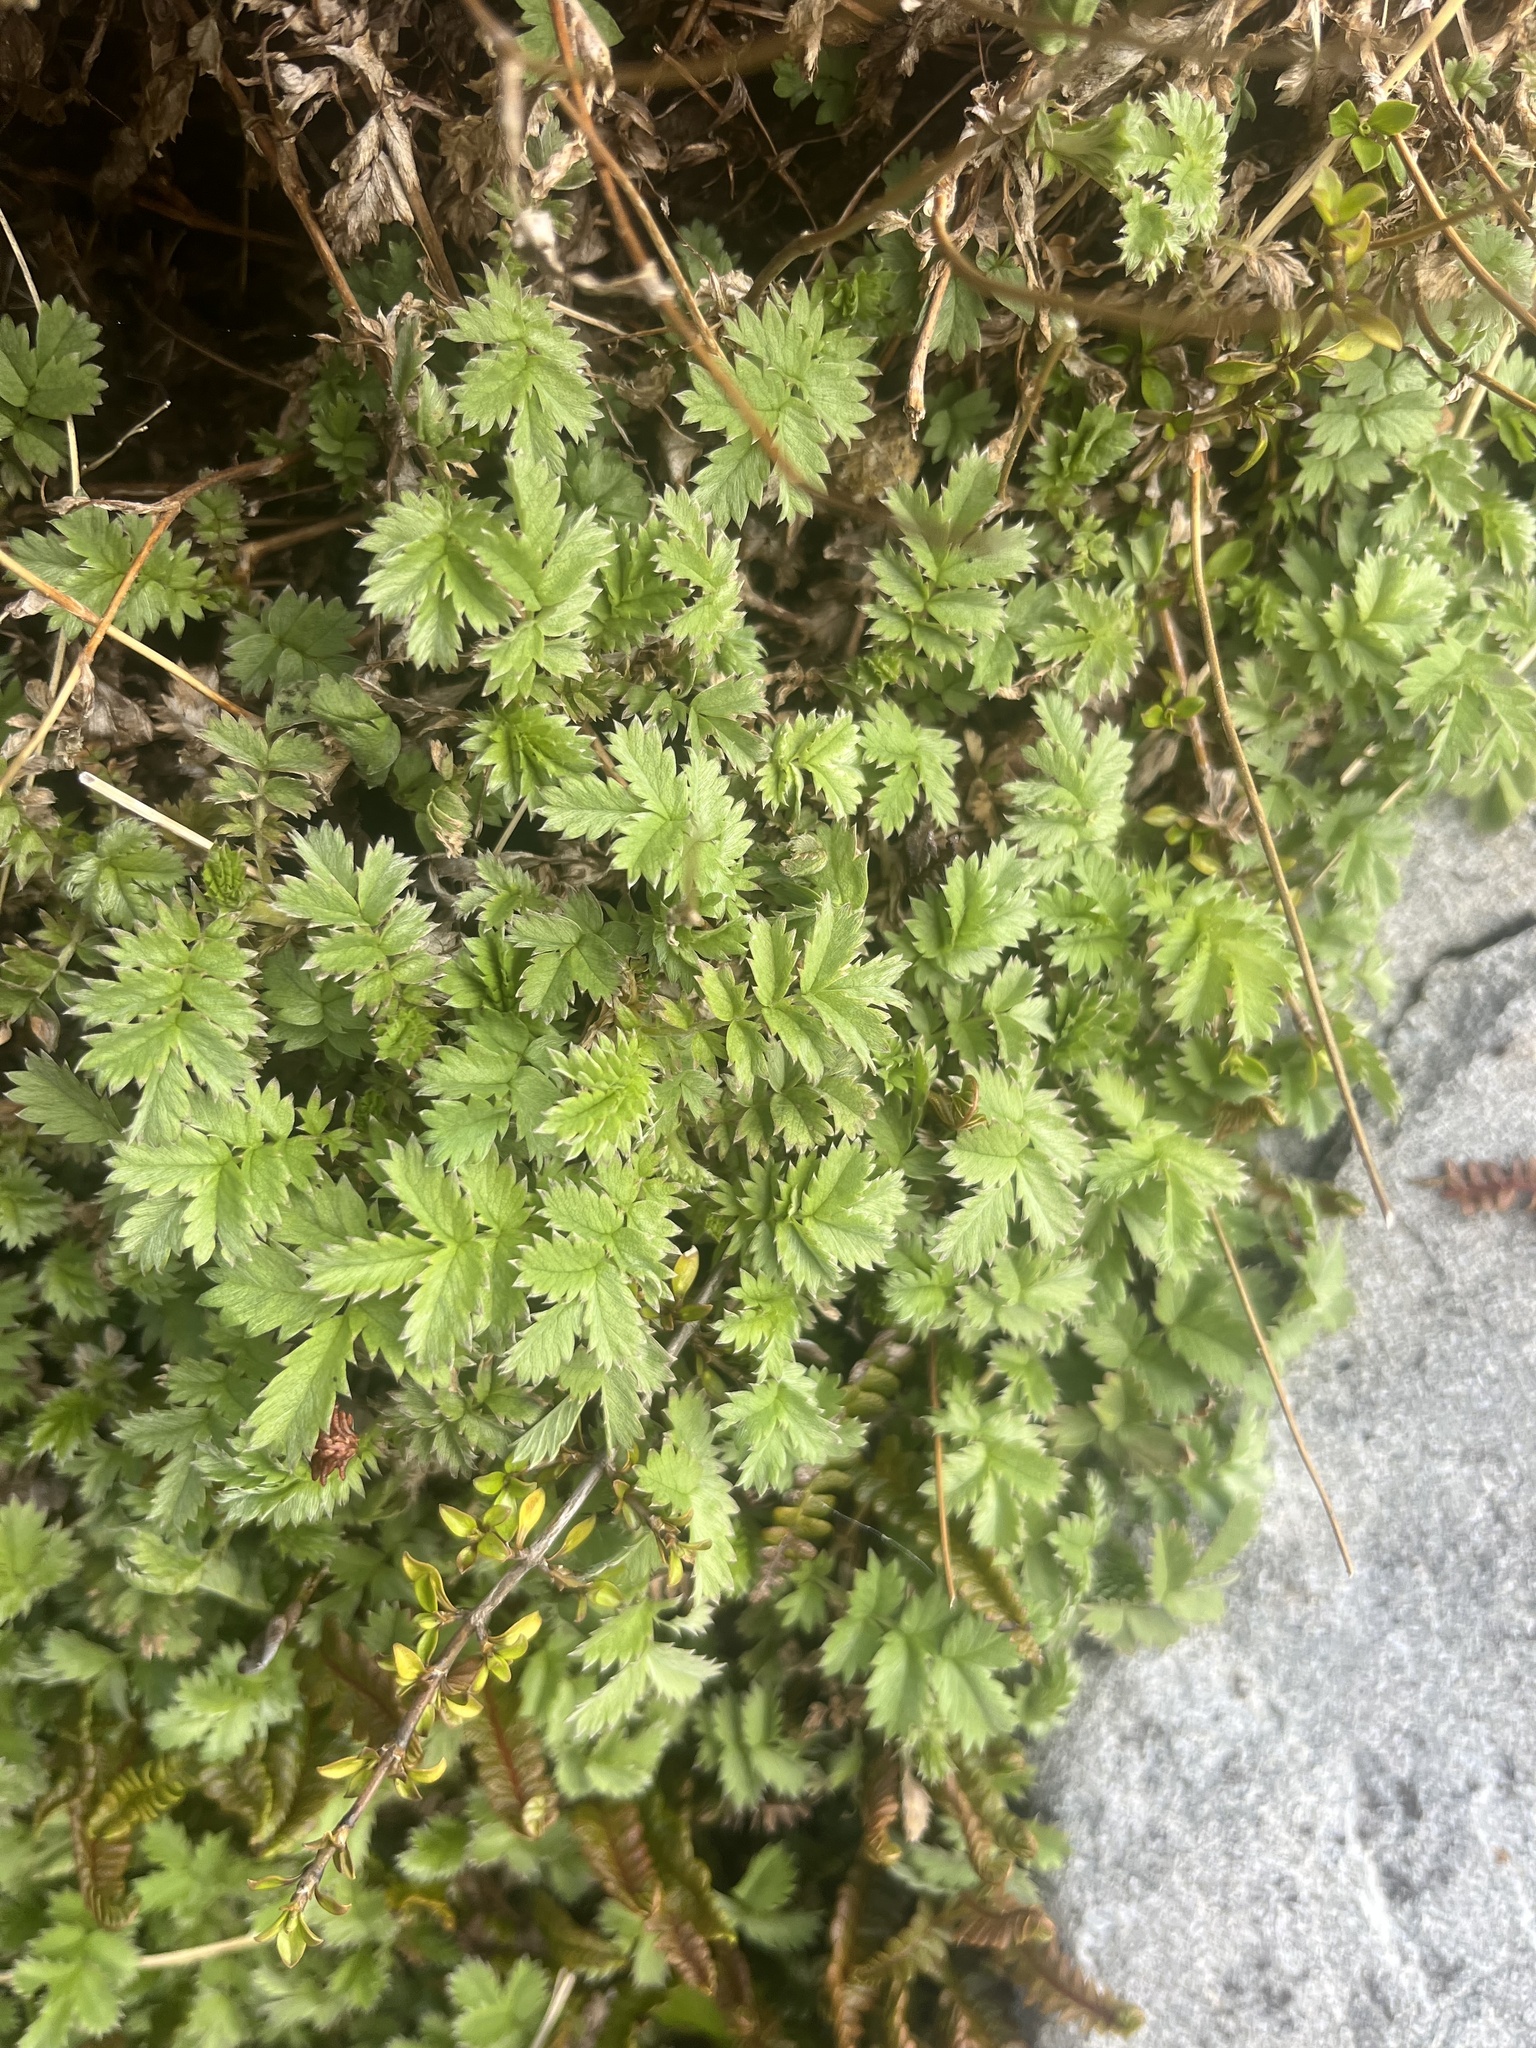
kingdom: Plantae
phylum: Tracheophyta
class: Magnoliopsida
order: Rosales
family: Rosaceae
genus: Acaena
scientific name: Acaena anserinifolia
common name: Bronze pirri-pirri-bur
